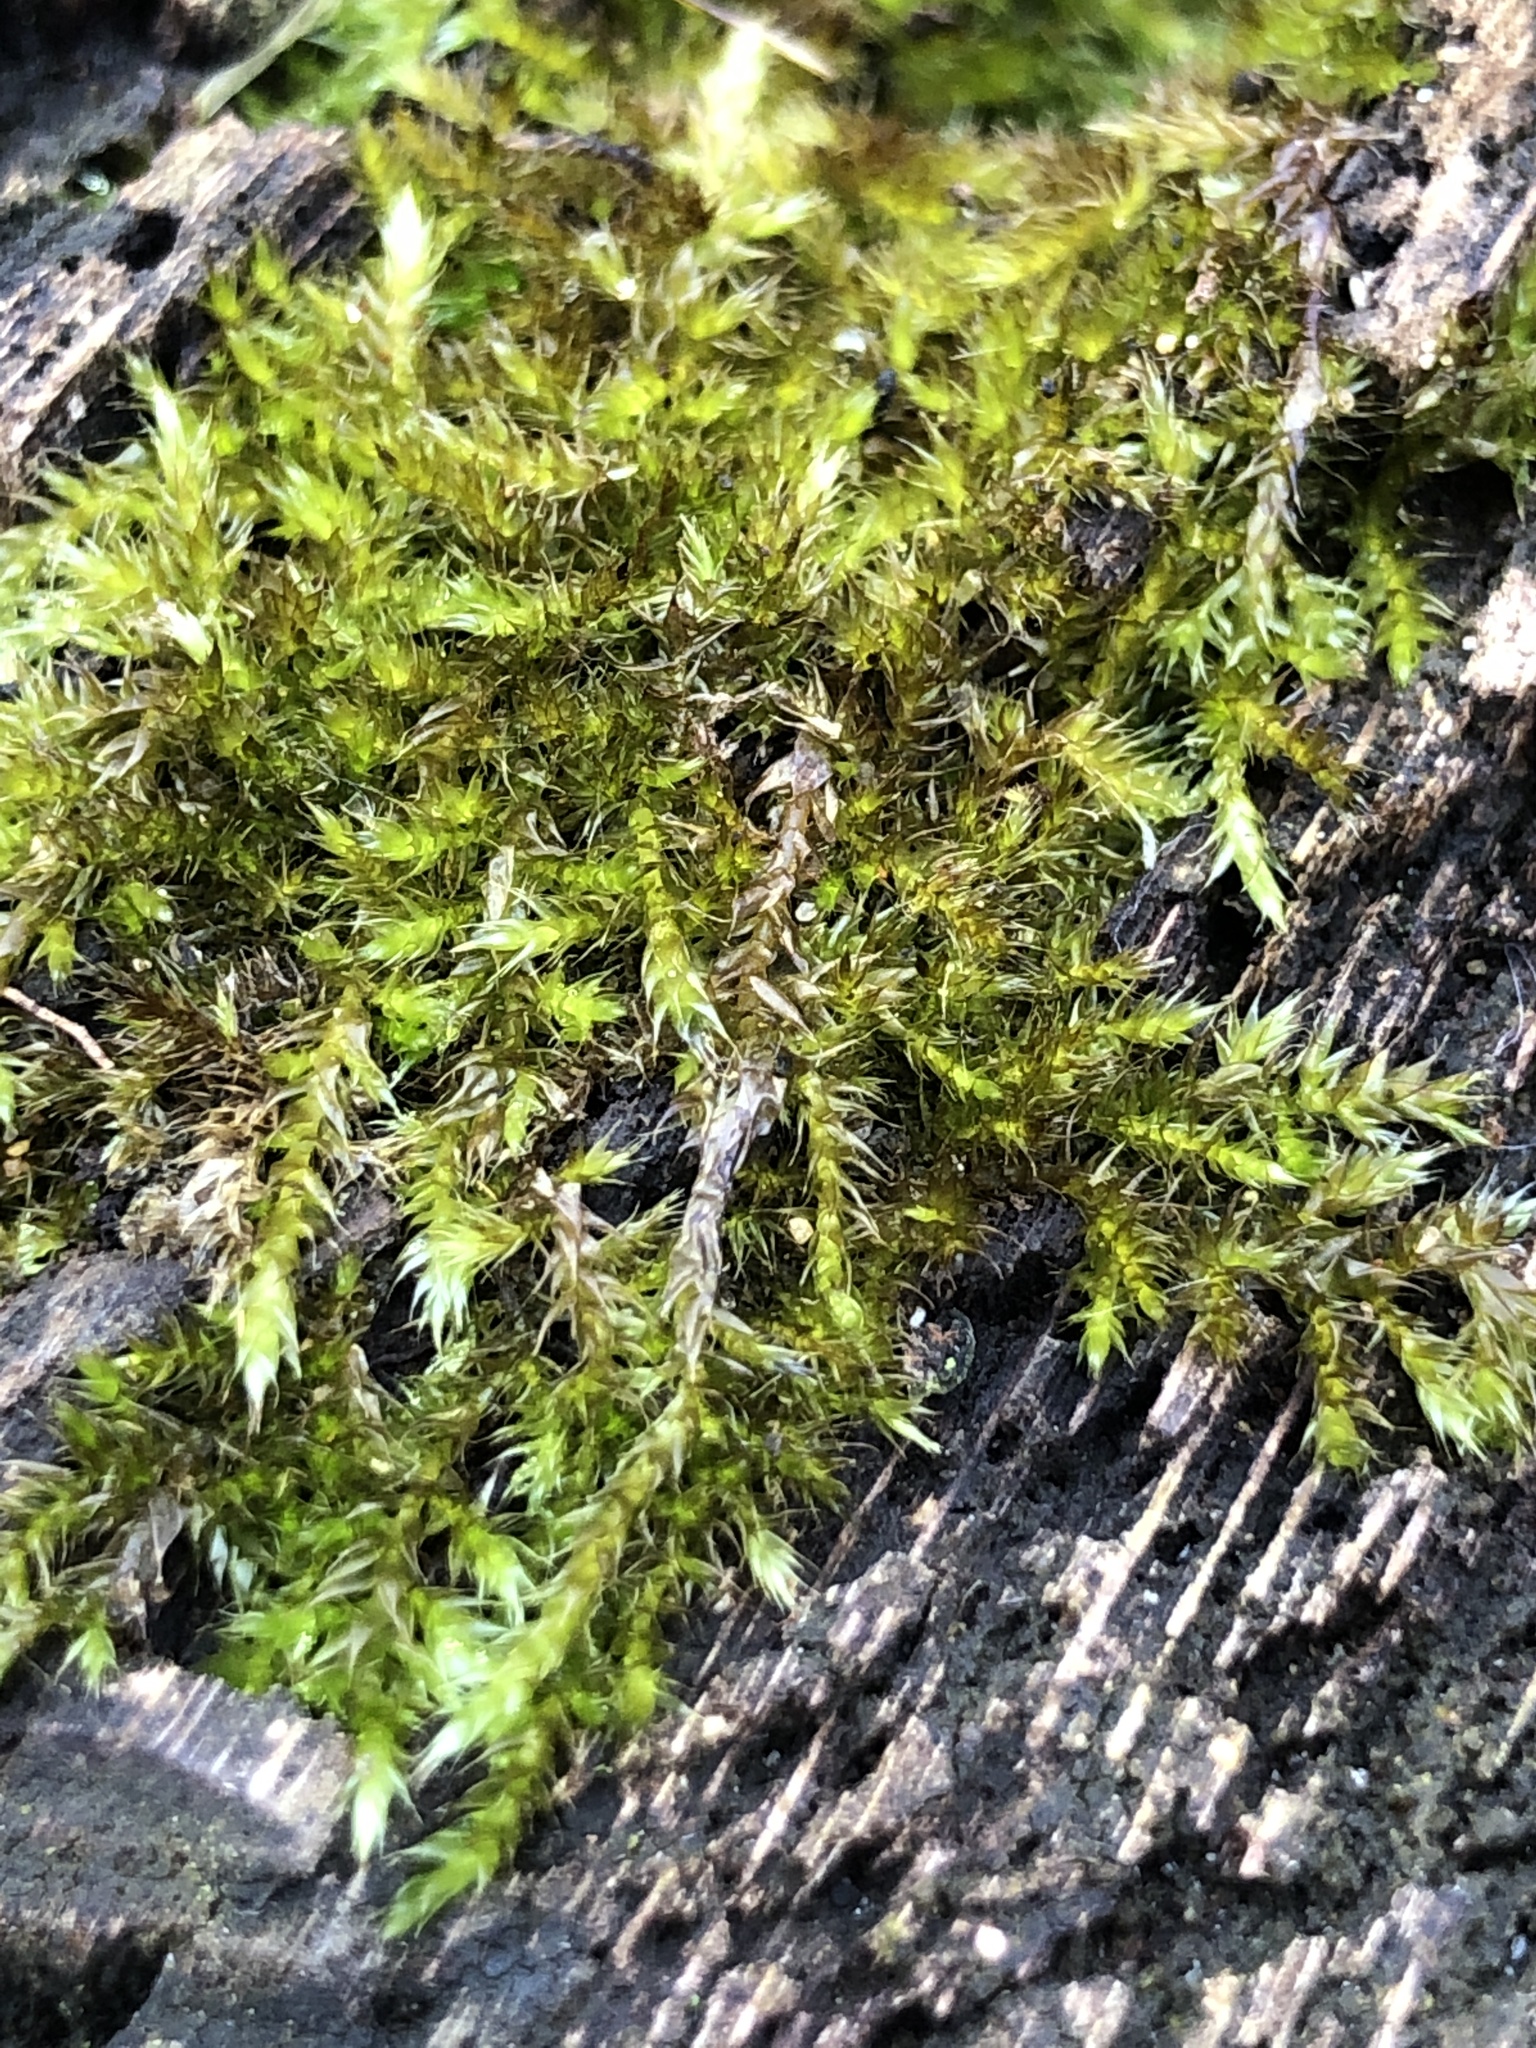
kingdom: Plantae
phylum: Bryophyta
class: Bryopsida
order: Hypnales
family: Hypnaceae
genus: Hypnum
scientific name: Hypnum resupinatum
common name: Supine plait-moss
